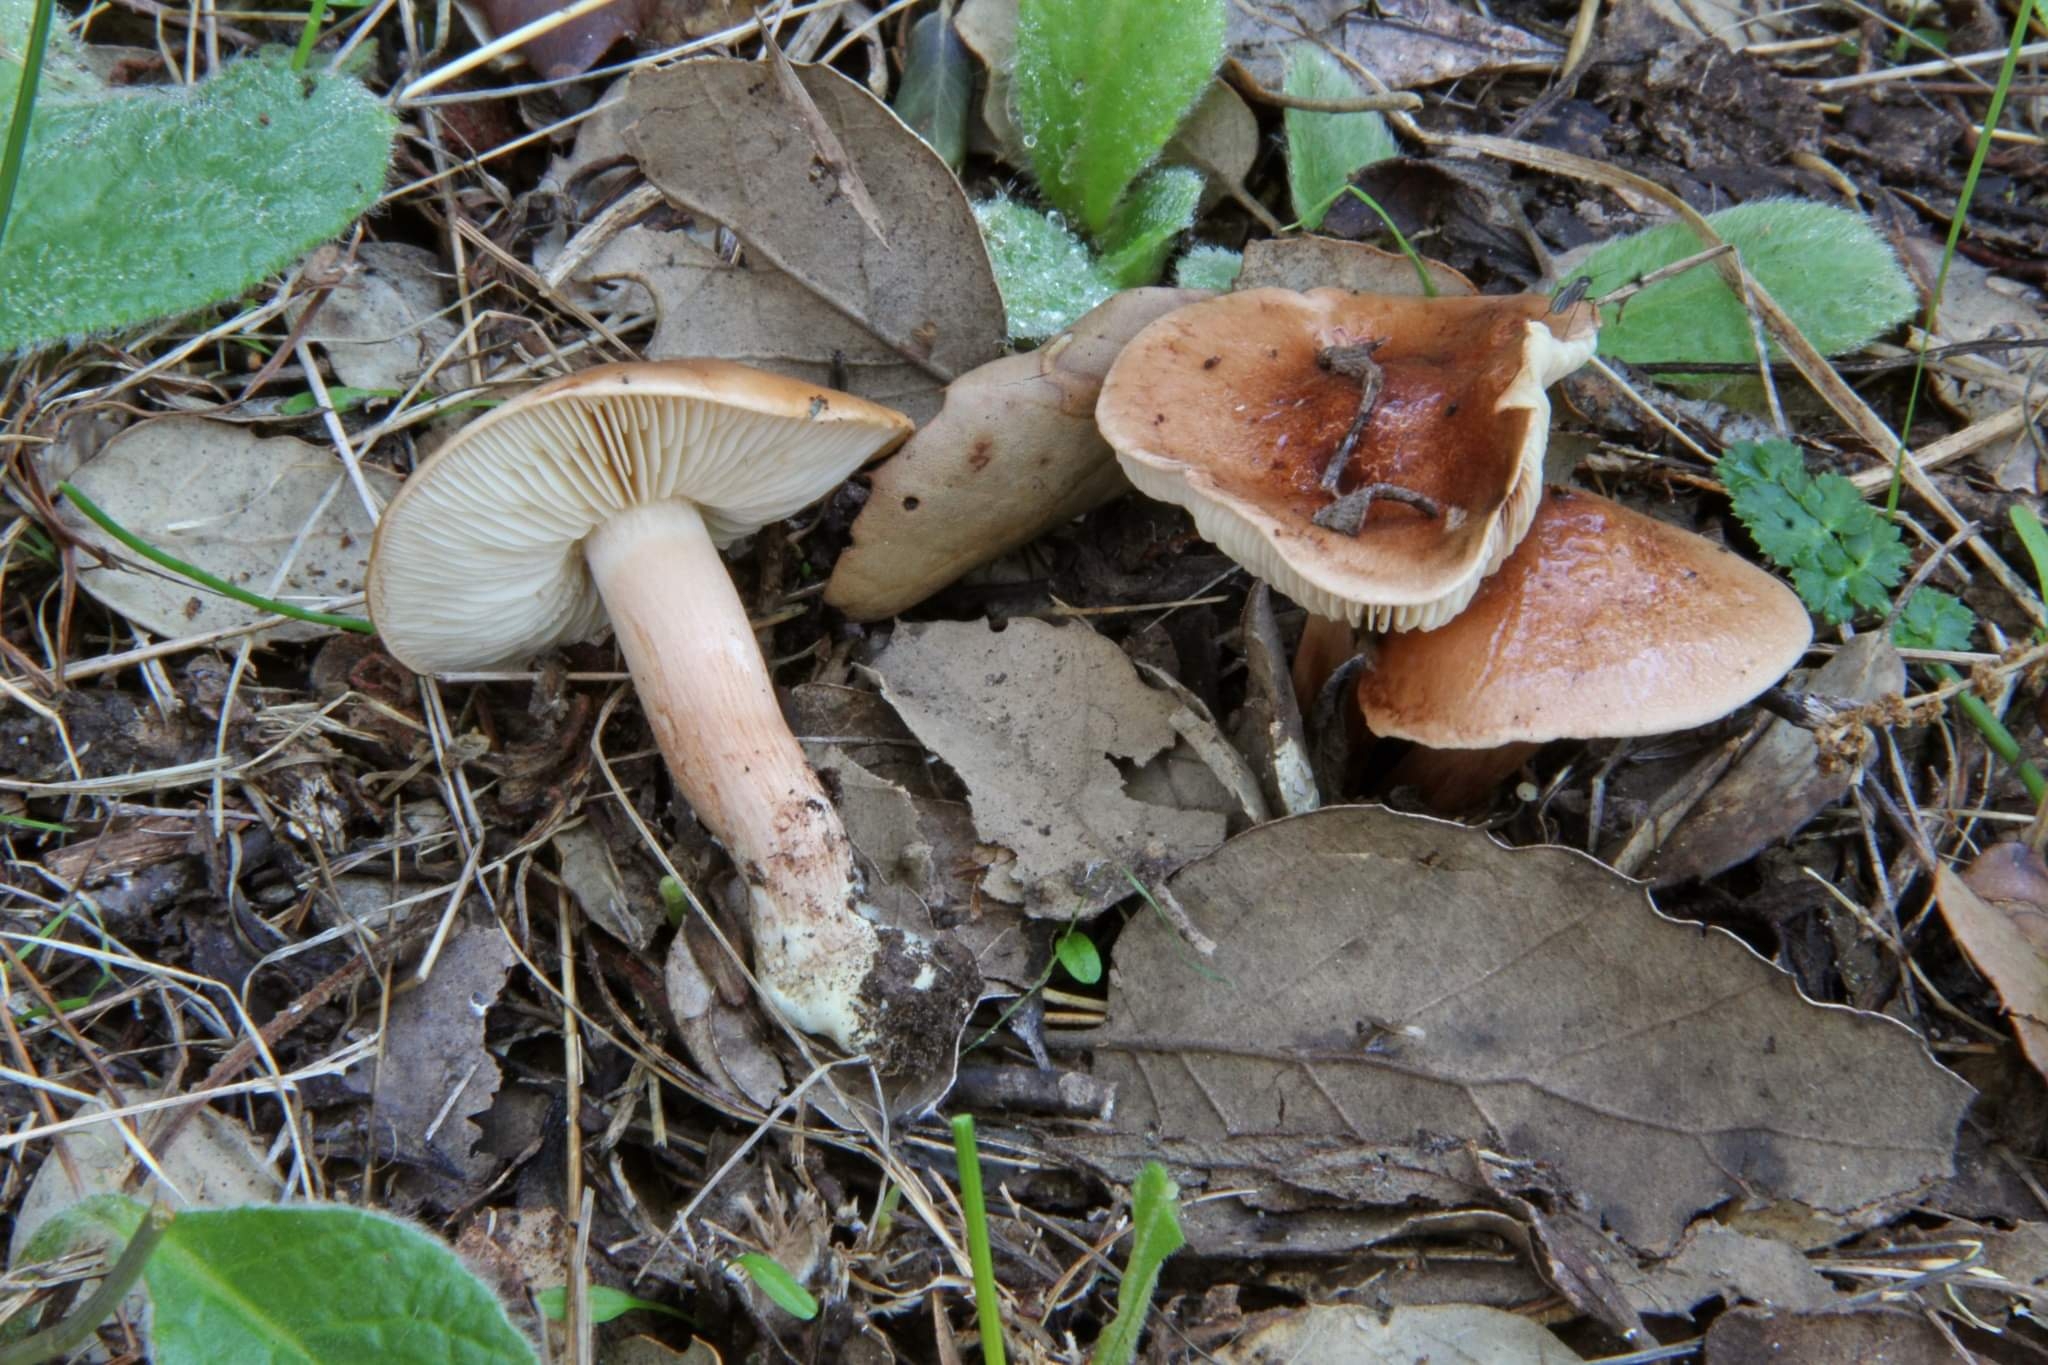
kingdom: Fungi
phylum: Basidiomycota
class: Agaricomycetes
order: Agaricales
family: Tricholomataceae
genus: Tricholoma
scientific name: Tricholoma quercetorum
